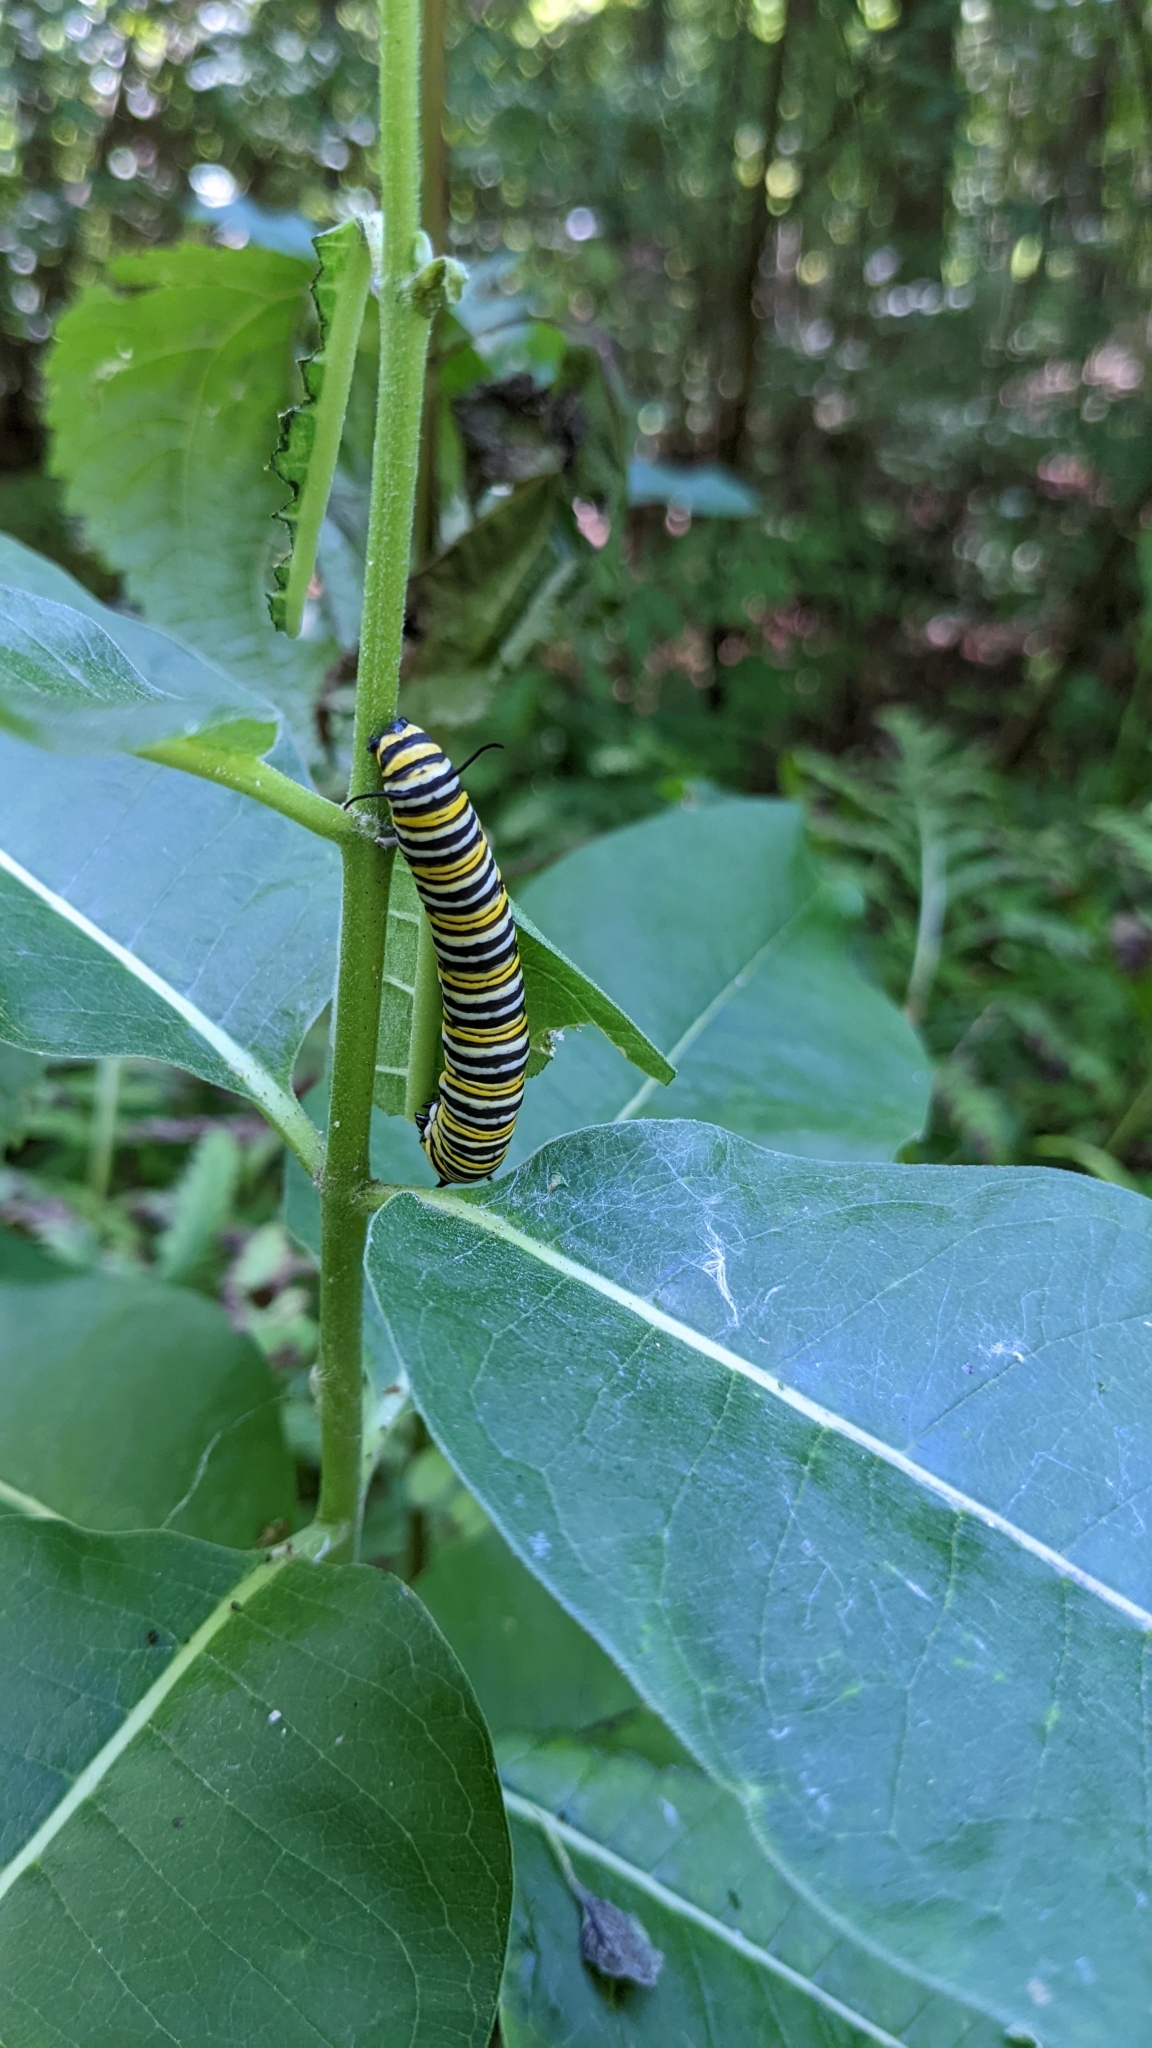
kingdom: Animalia
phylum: Arthropoda
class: Insecta
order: Lepidoptera
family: Nymphalidae
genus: Danaus
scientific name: Danaus plexippus
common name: Monarch
